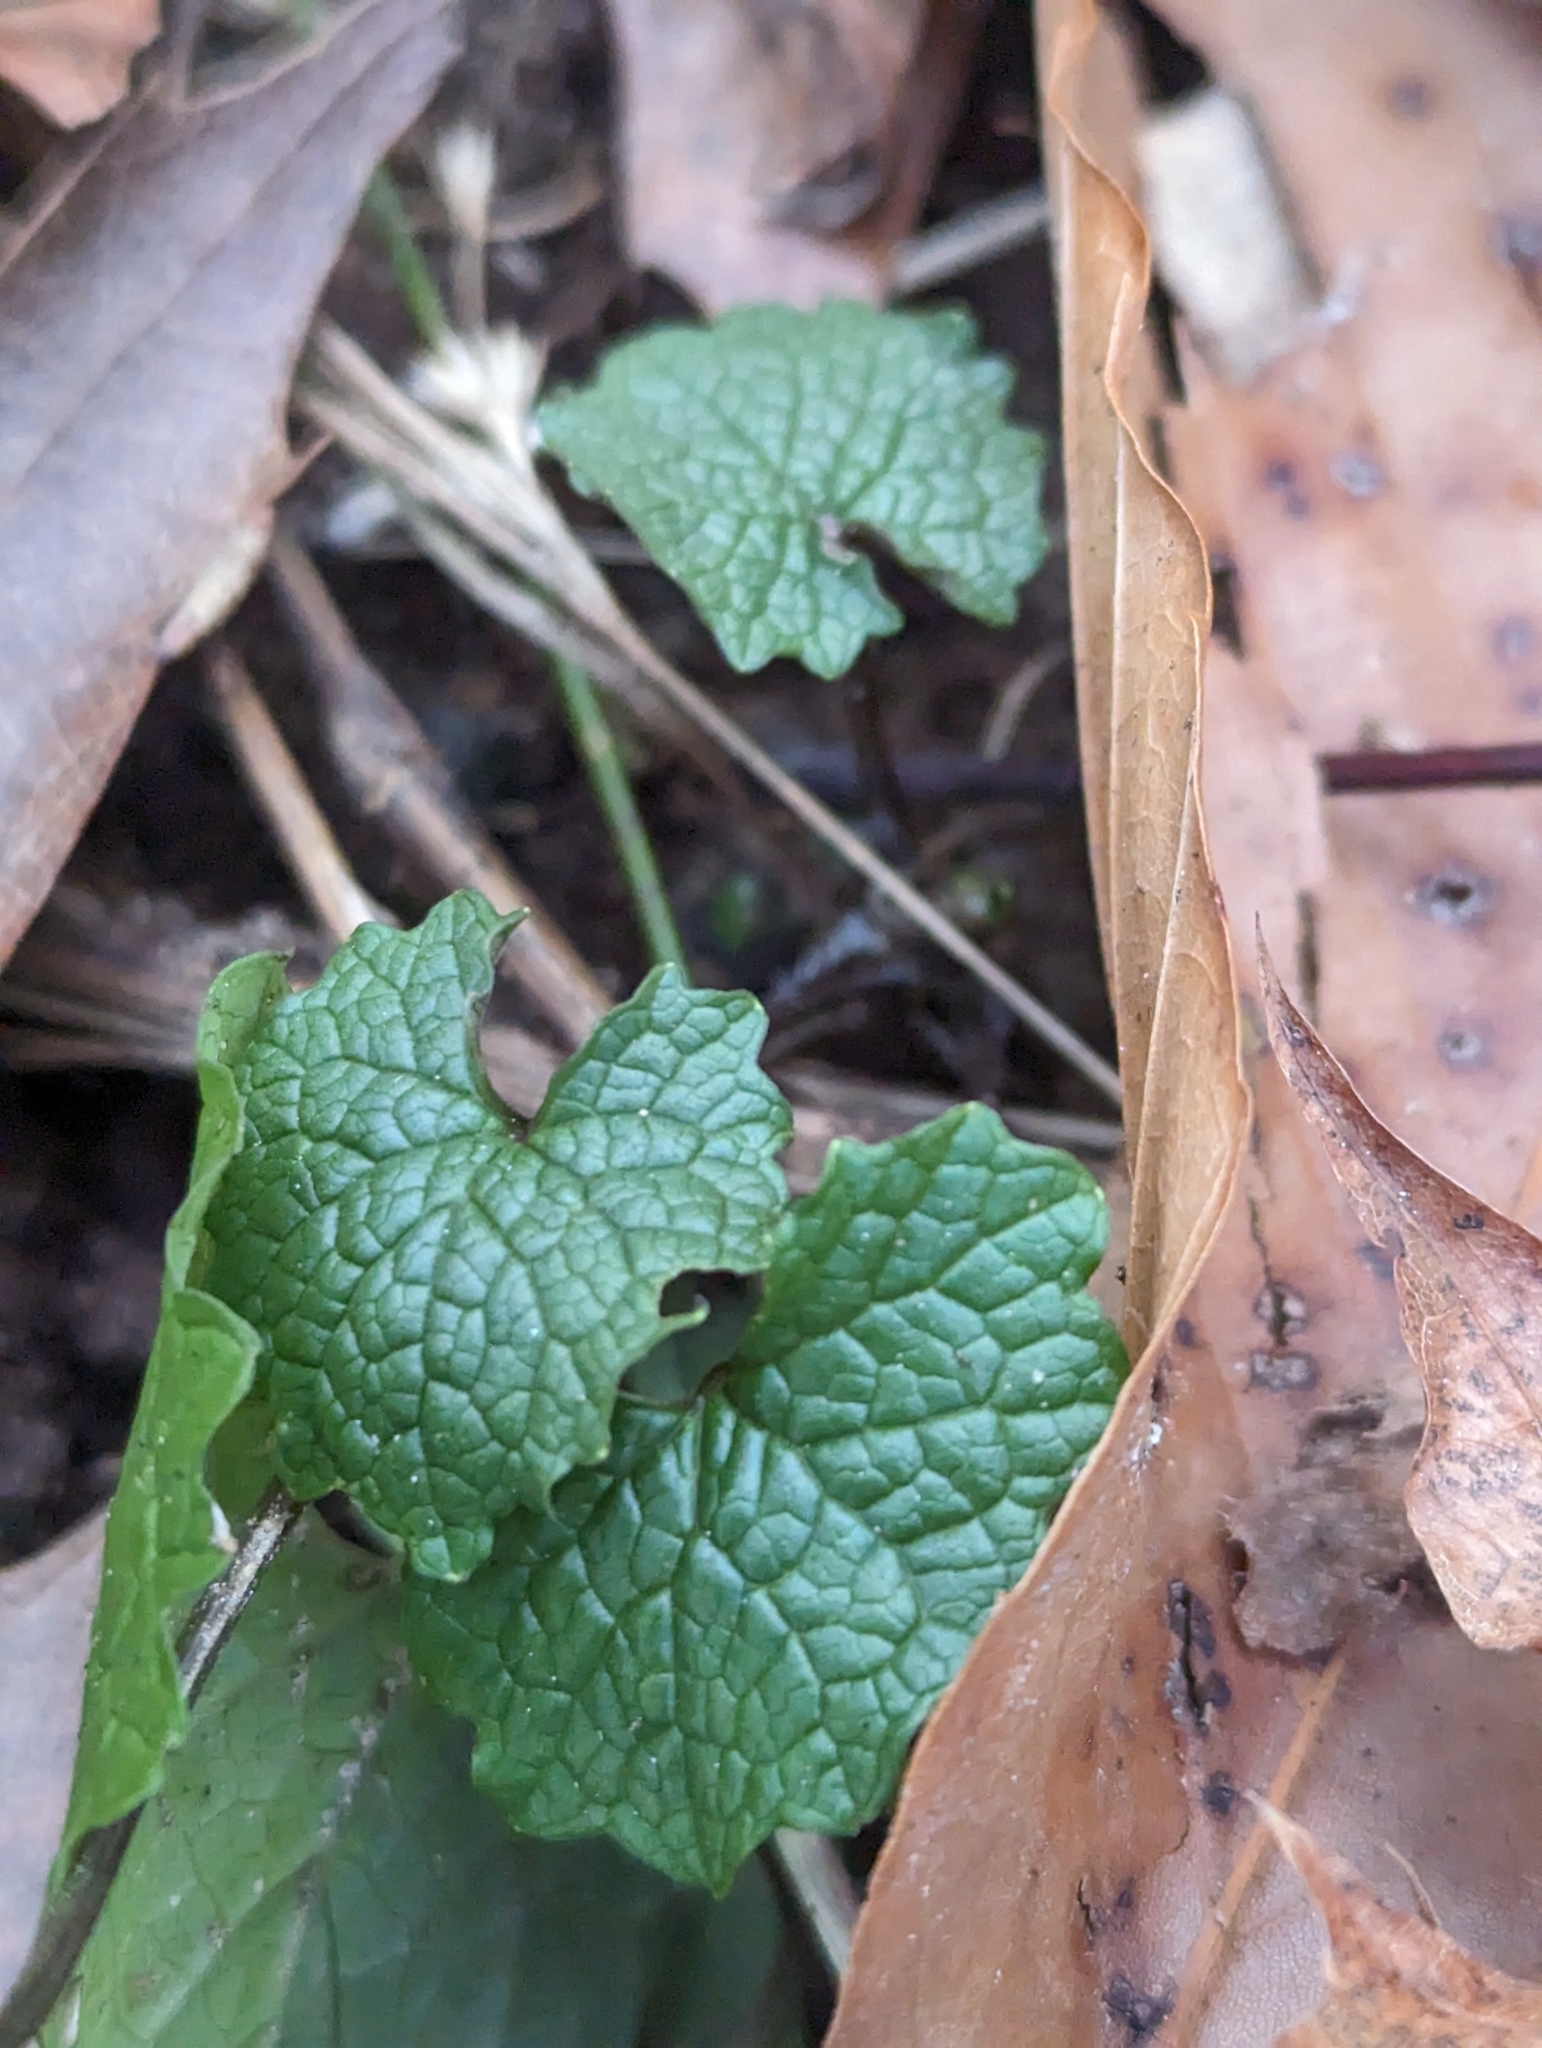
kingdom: Plantae
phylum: Tracheophyta
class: Magnoliopsida
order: Brassicales
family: Brassicaceae
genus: Alliaria
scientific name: Alliaria petiolata
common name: Garlic mustard
